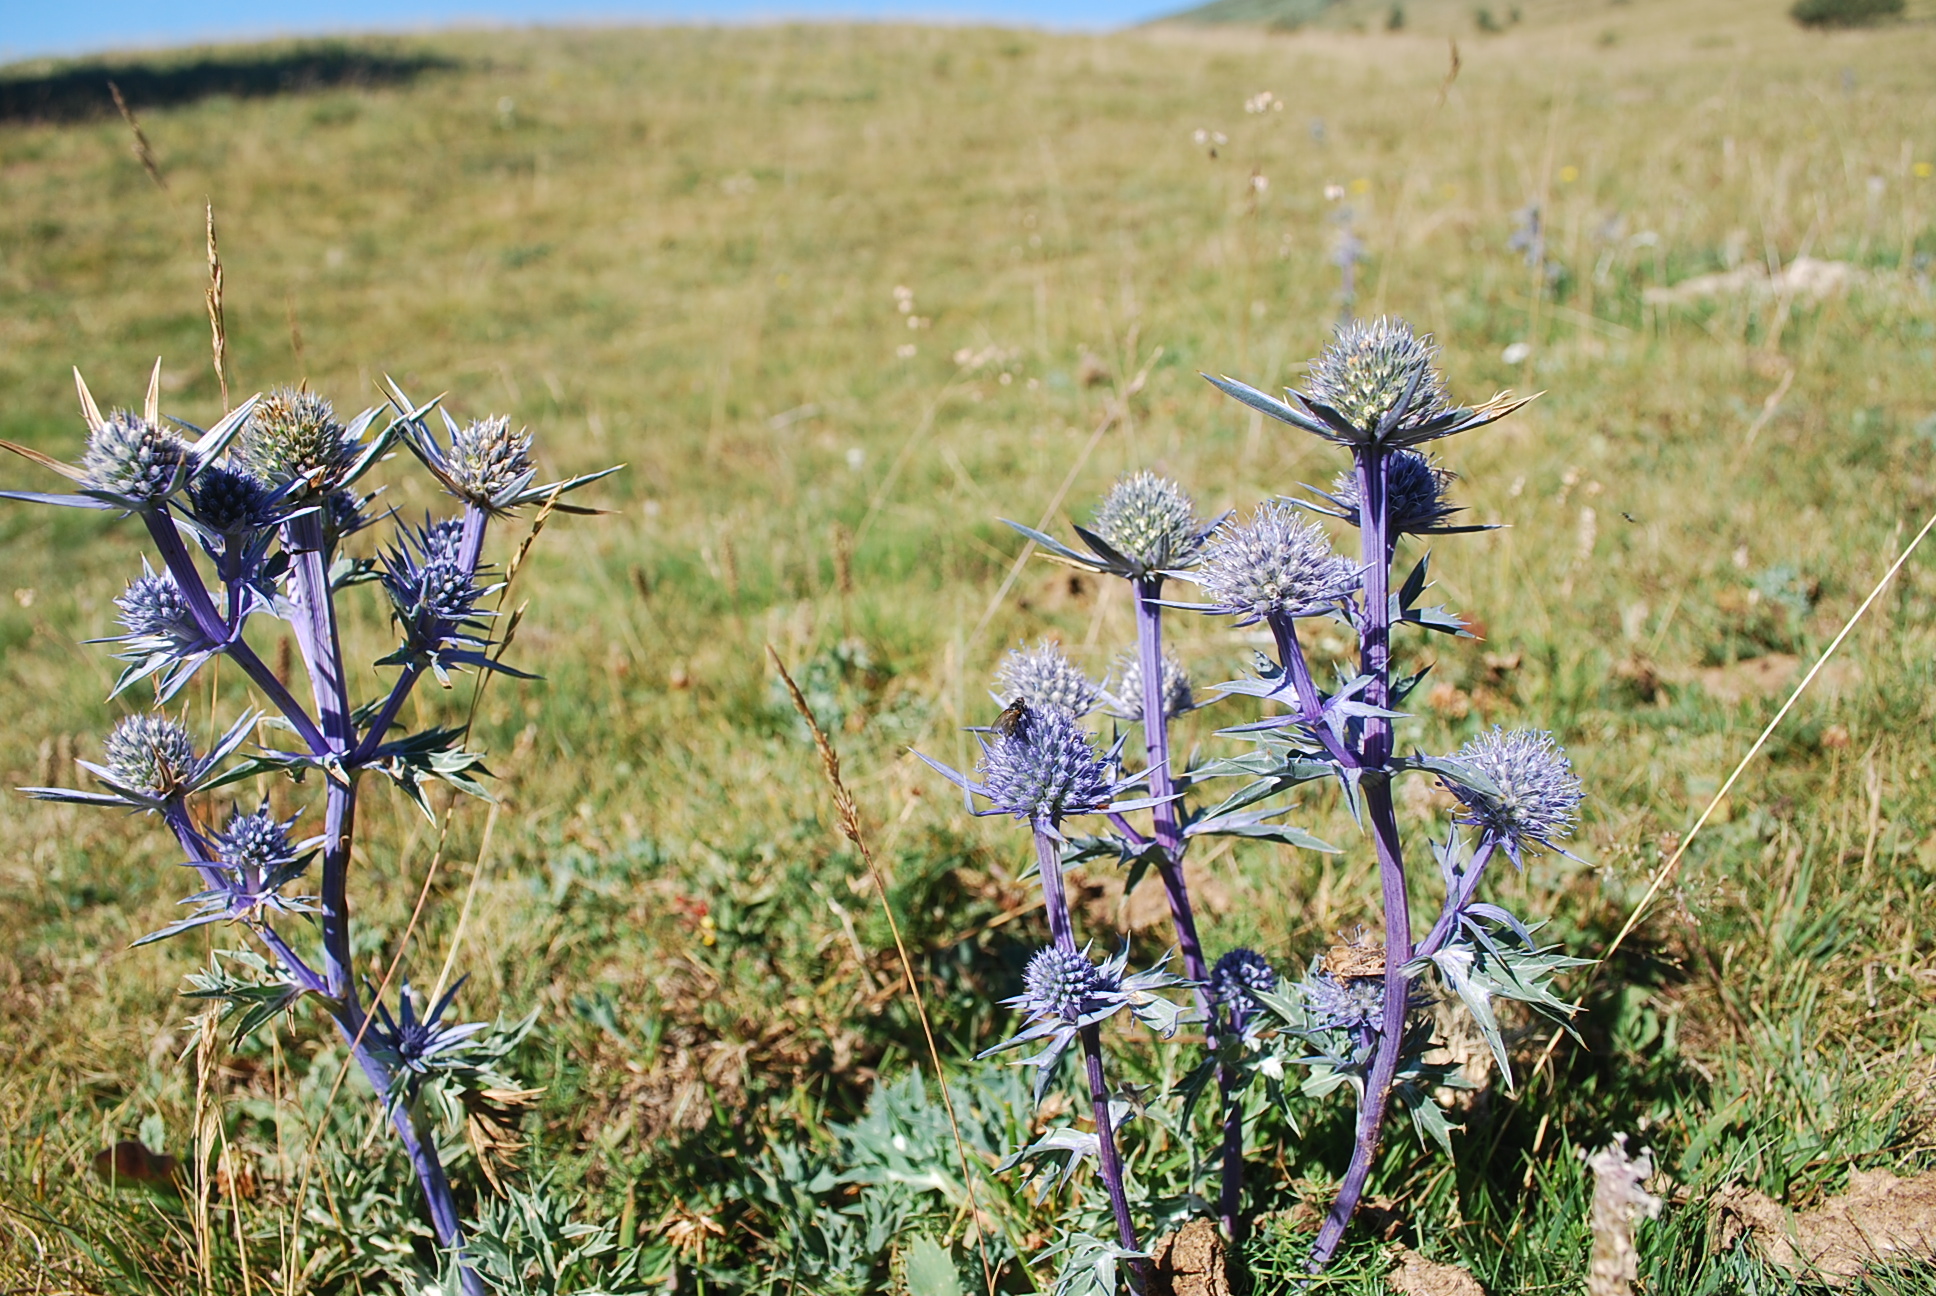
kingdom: Plantae
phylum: Tracheophyta
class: Magnoliopsida
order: Apiales
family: Apiaceae
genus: Eryngium
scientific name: Eryngium bourgatii
